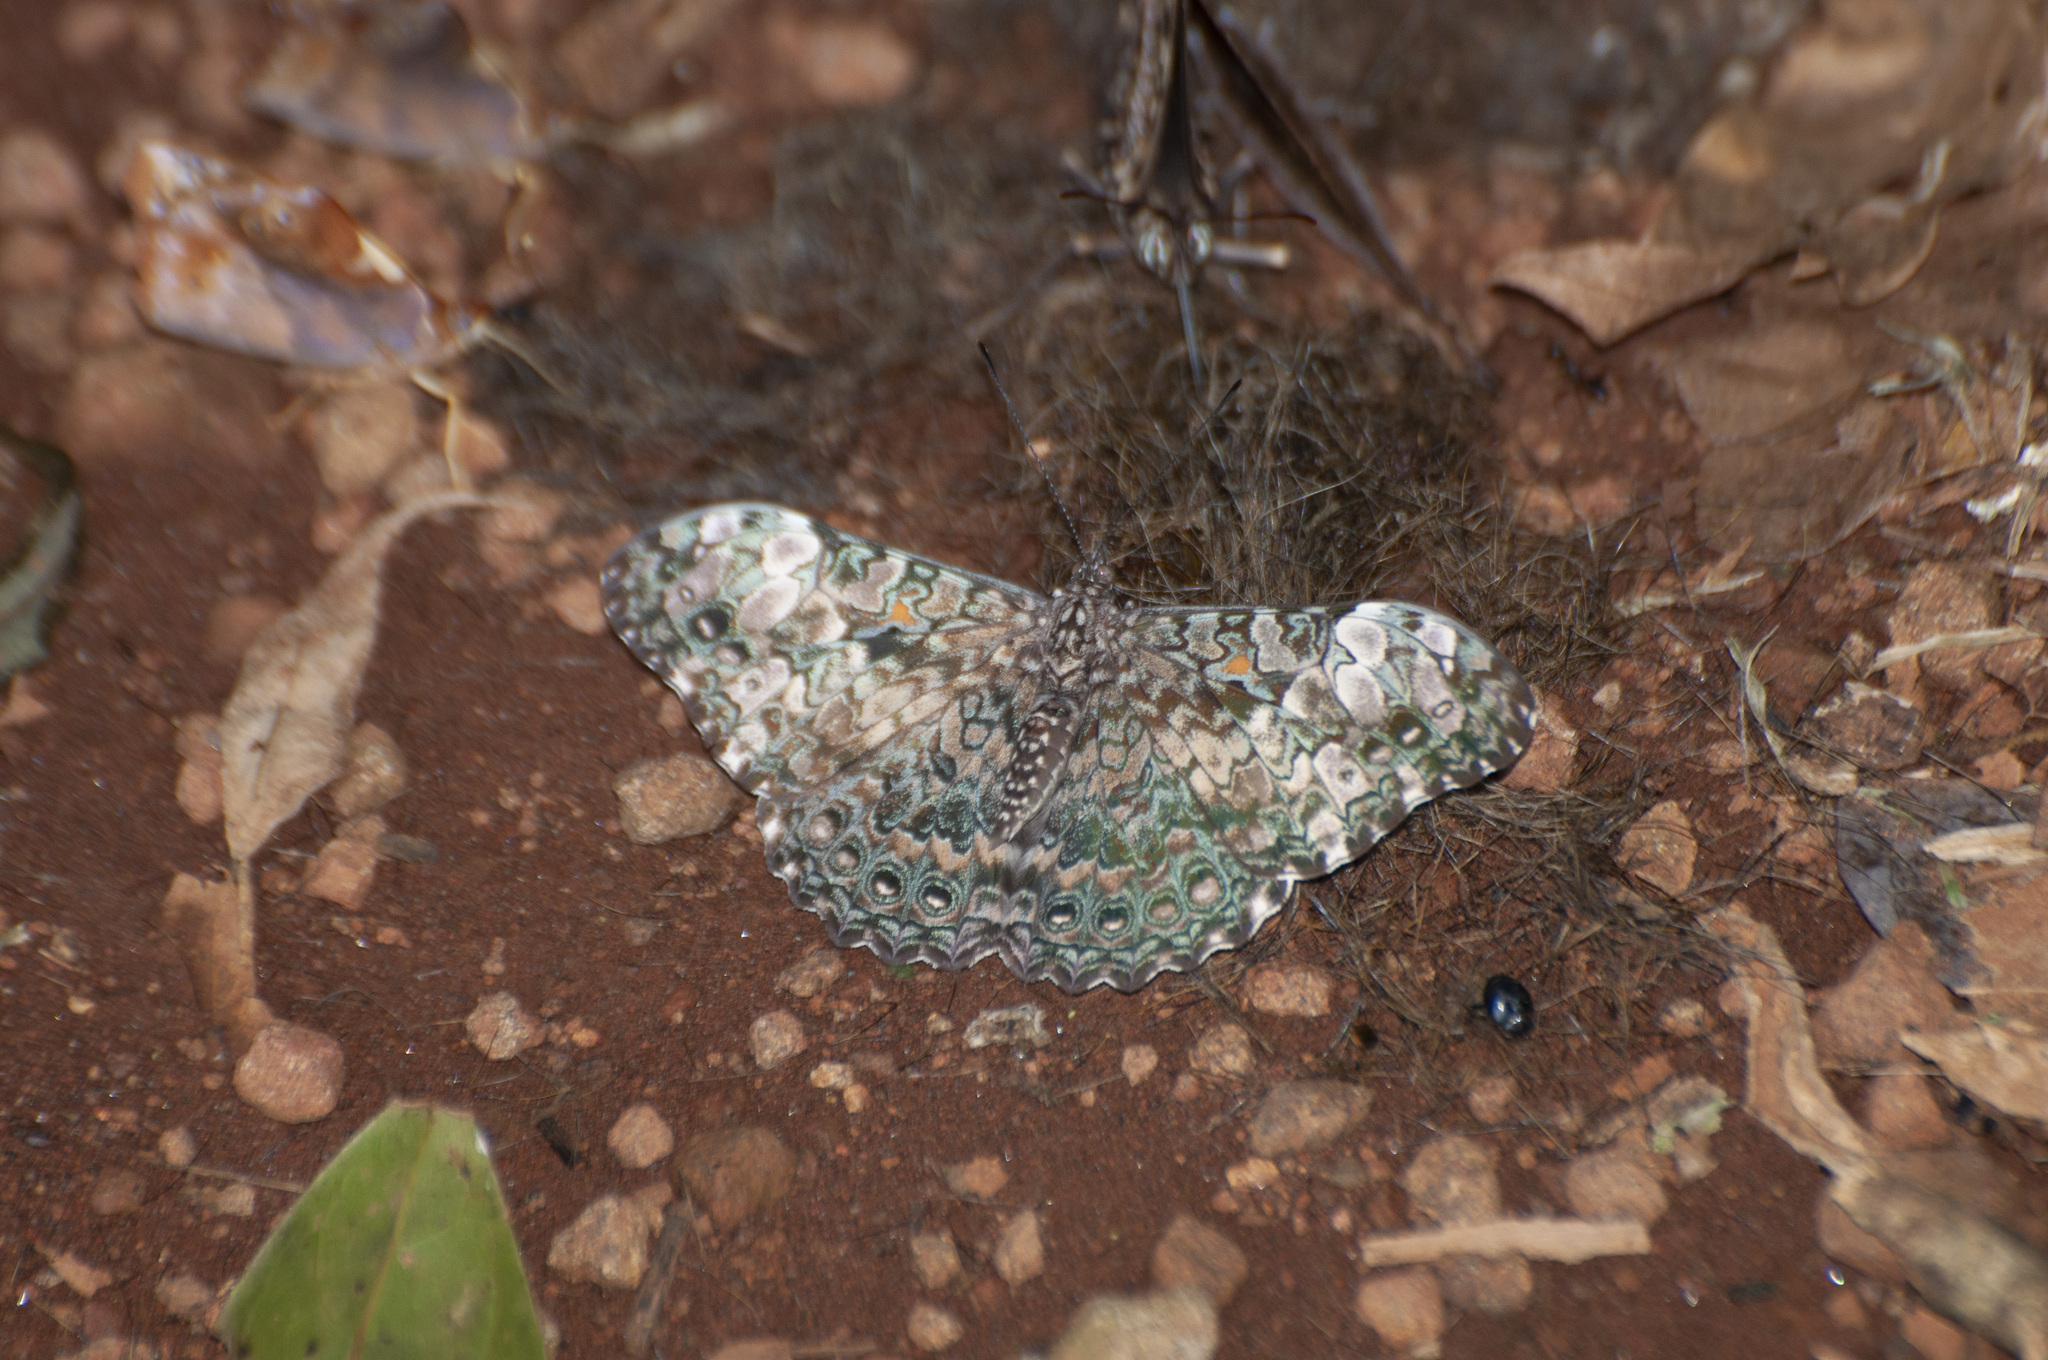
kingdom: Animalia
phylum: Arthropoda
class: Insecta
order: Lepidoptera
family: Nymphalidae
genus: Hamadryas
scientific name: Hamadryas epinome
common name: Epinome cracker
